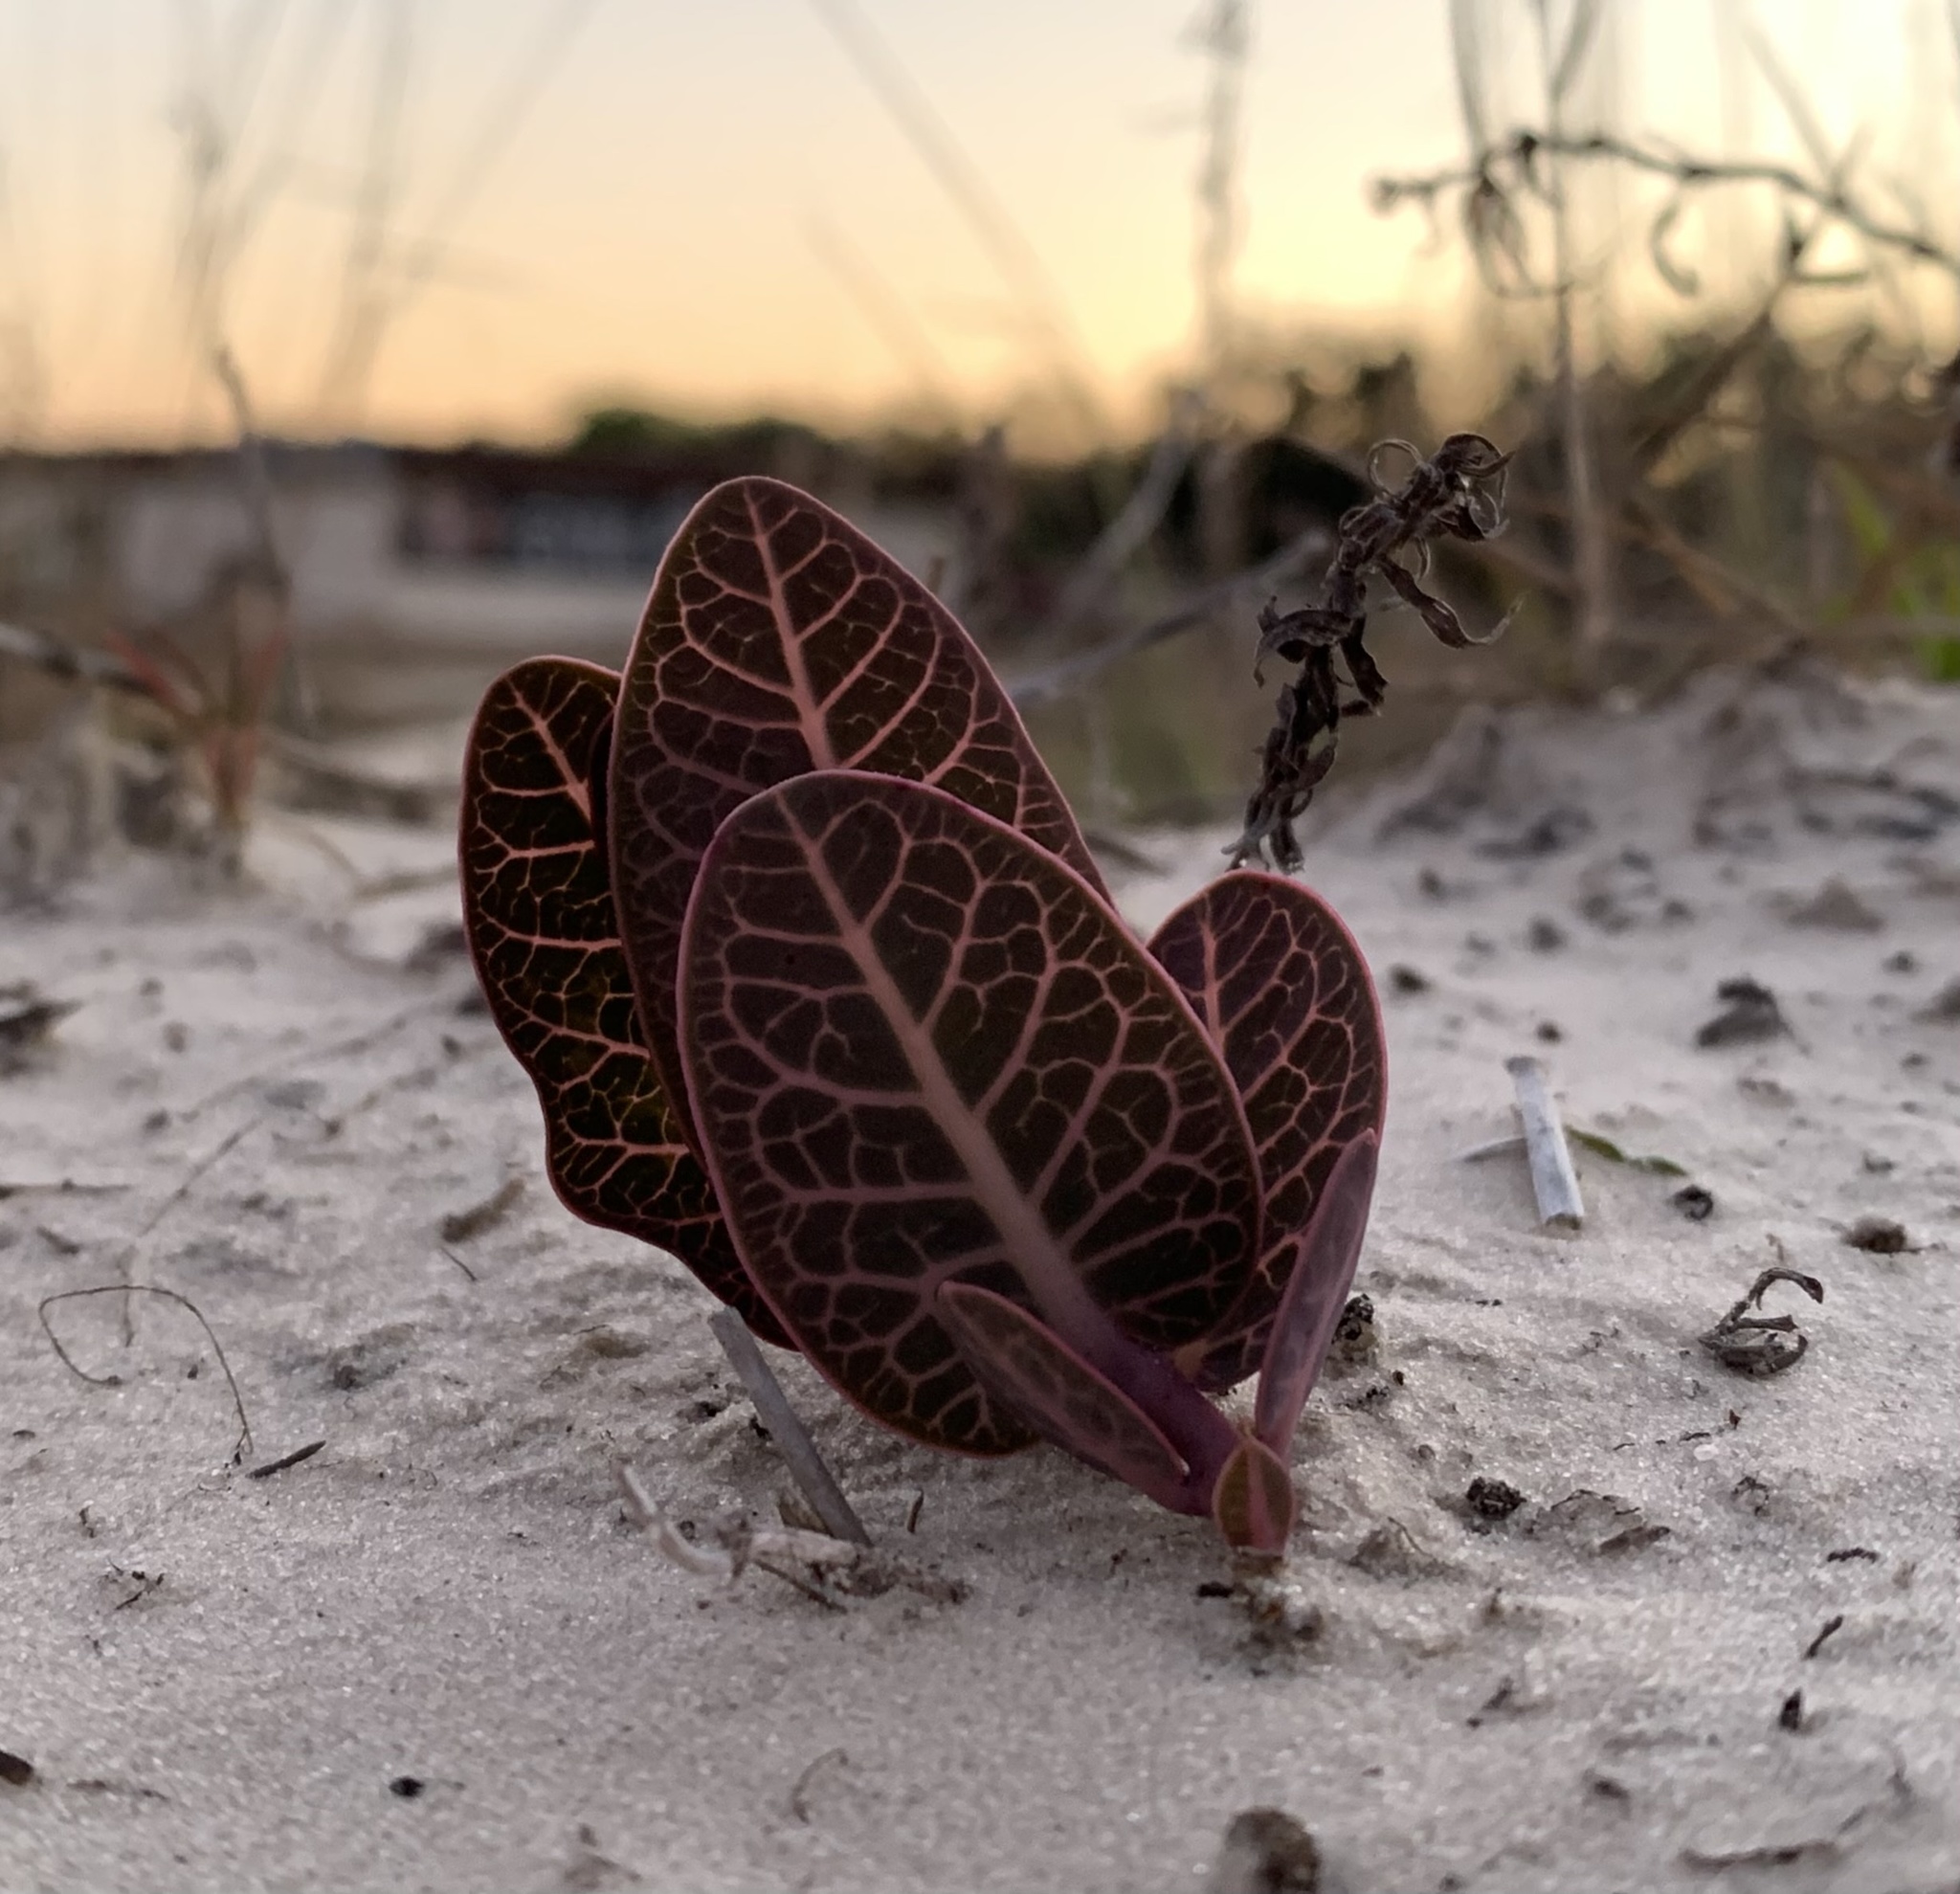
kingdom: Plantae
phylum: Tracheophyta
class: Magnoliopsida
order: Gentianales
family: Apocynaceae
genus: Asclepias
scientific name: Asclepias humistrata
